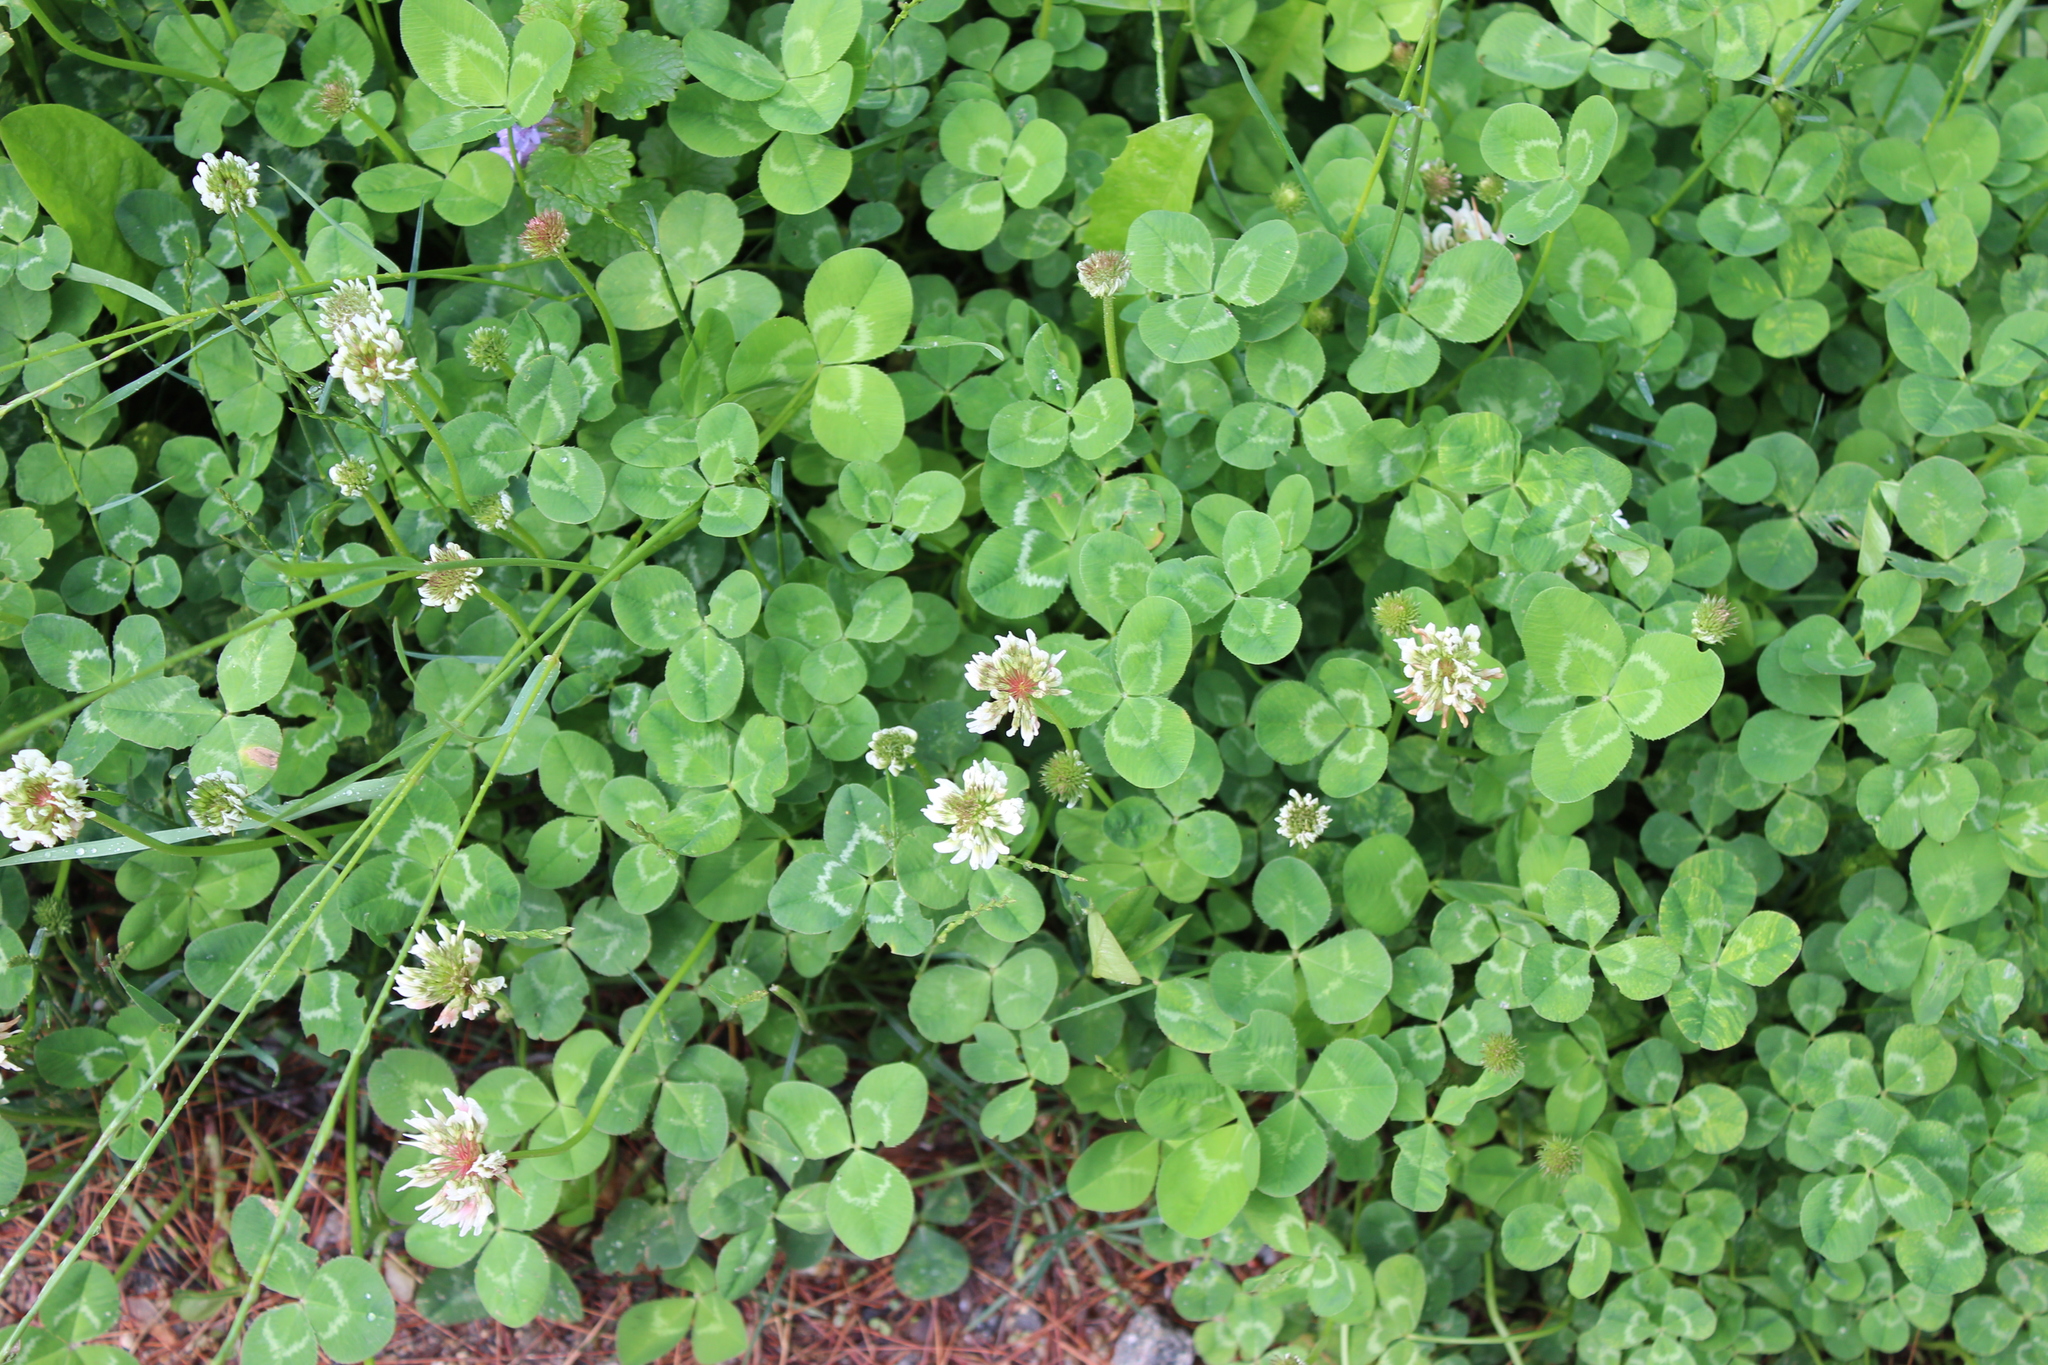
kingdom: Plantae
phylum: Tracheophyta
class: Magnoliopsida
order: Fabales
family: Fabaceae
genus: Trifolium
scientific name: Trifolium repens
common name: White clover
